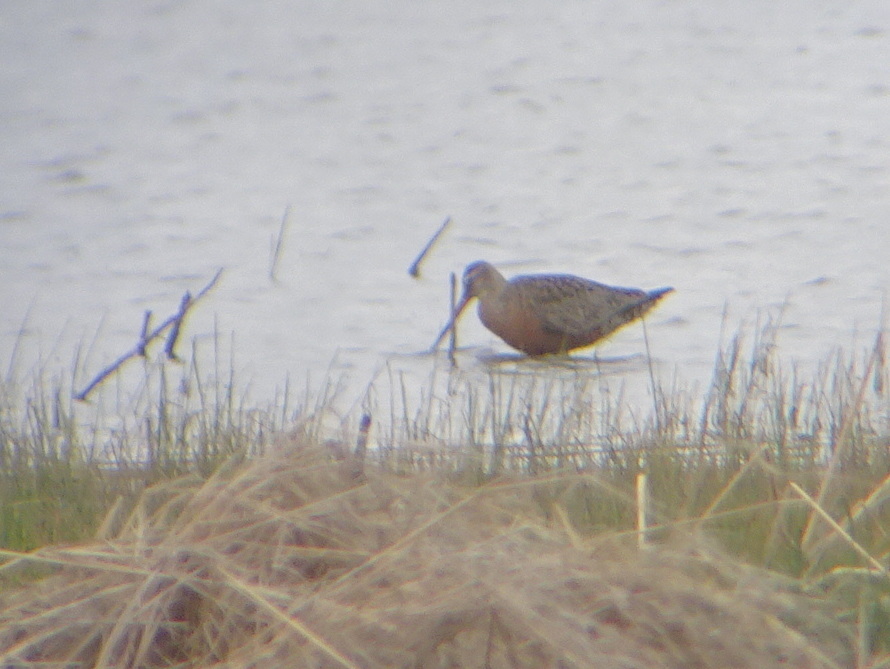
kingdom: Animalia
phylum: Chordata
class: Aves
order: Charadriiformes
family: Scolopacidae
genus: Limosa
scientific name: Limosa haemastica
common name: Hudsonian godwit
